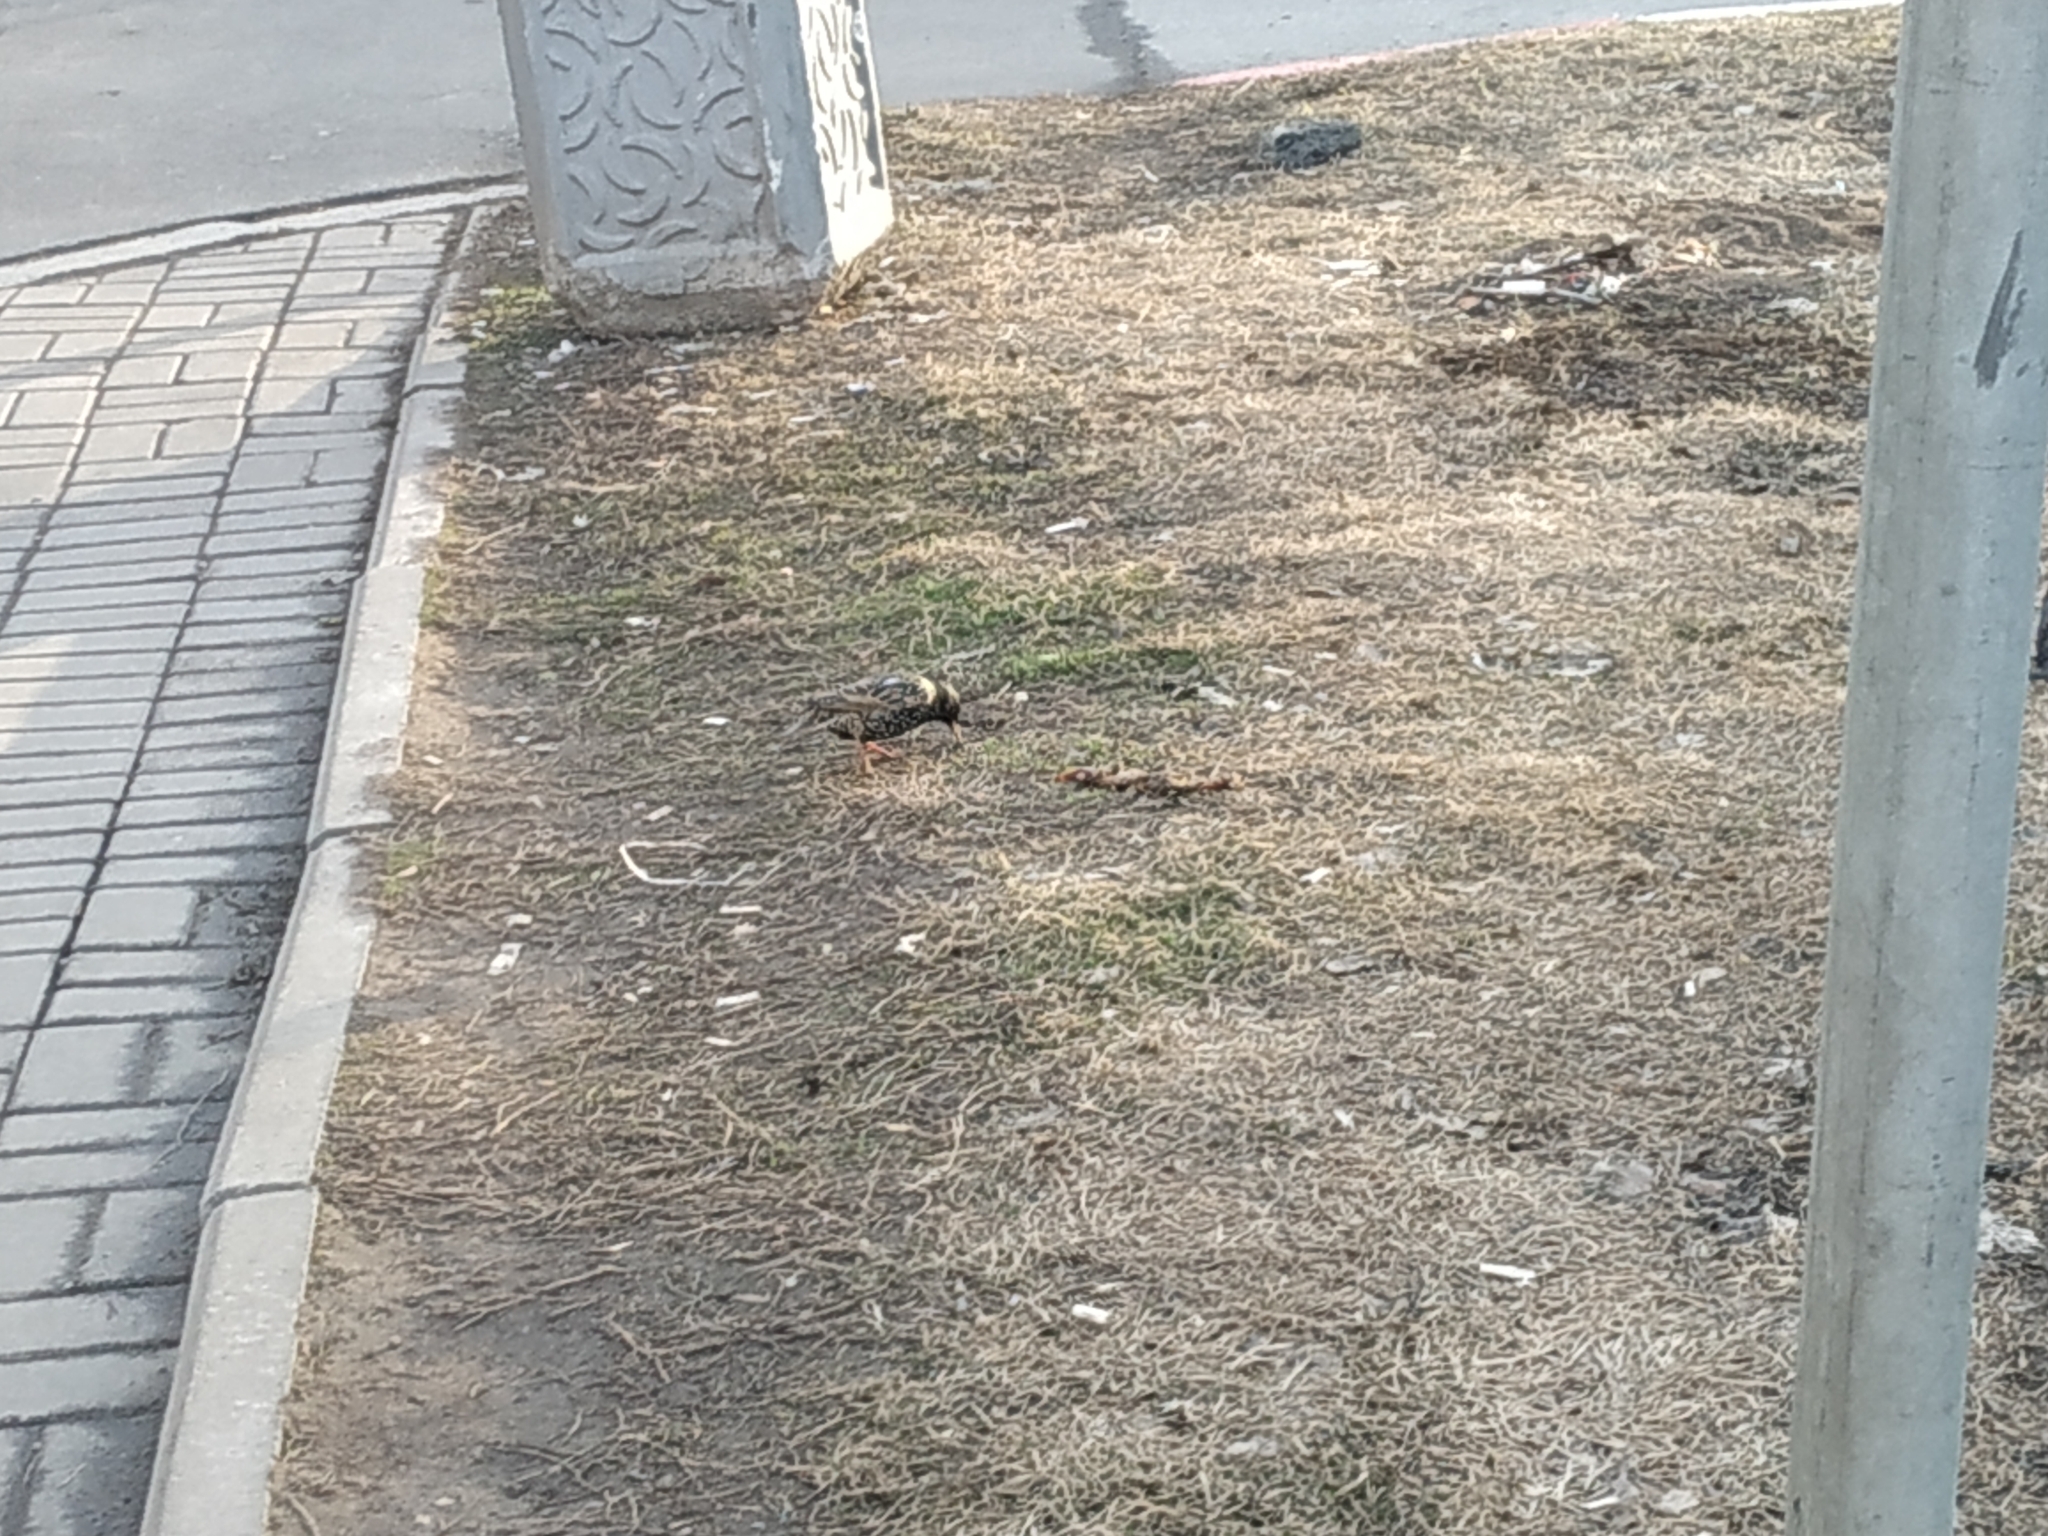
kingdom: Animalia
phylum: Chordata
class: Aves
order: Passeriformes
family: Sturnidae
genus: Sturnus
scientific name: Sturnus vulgaris
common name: Common starling
